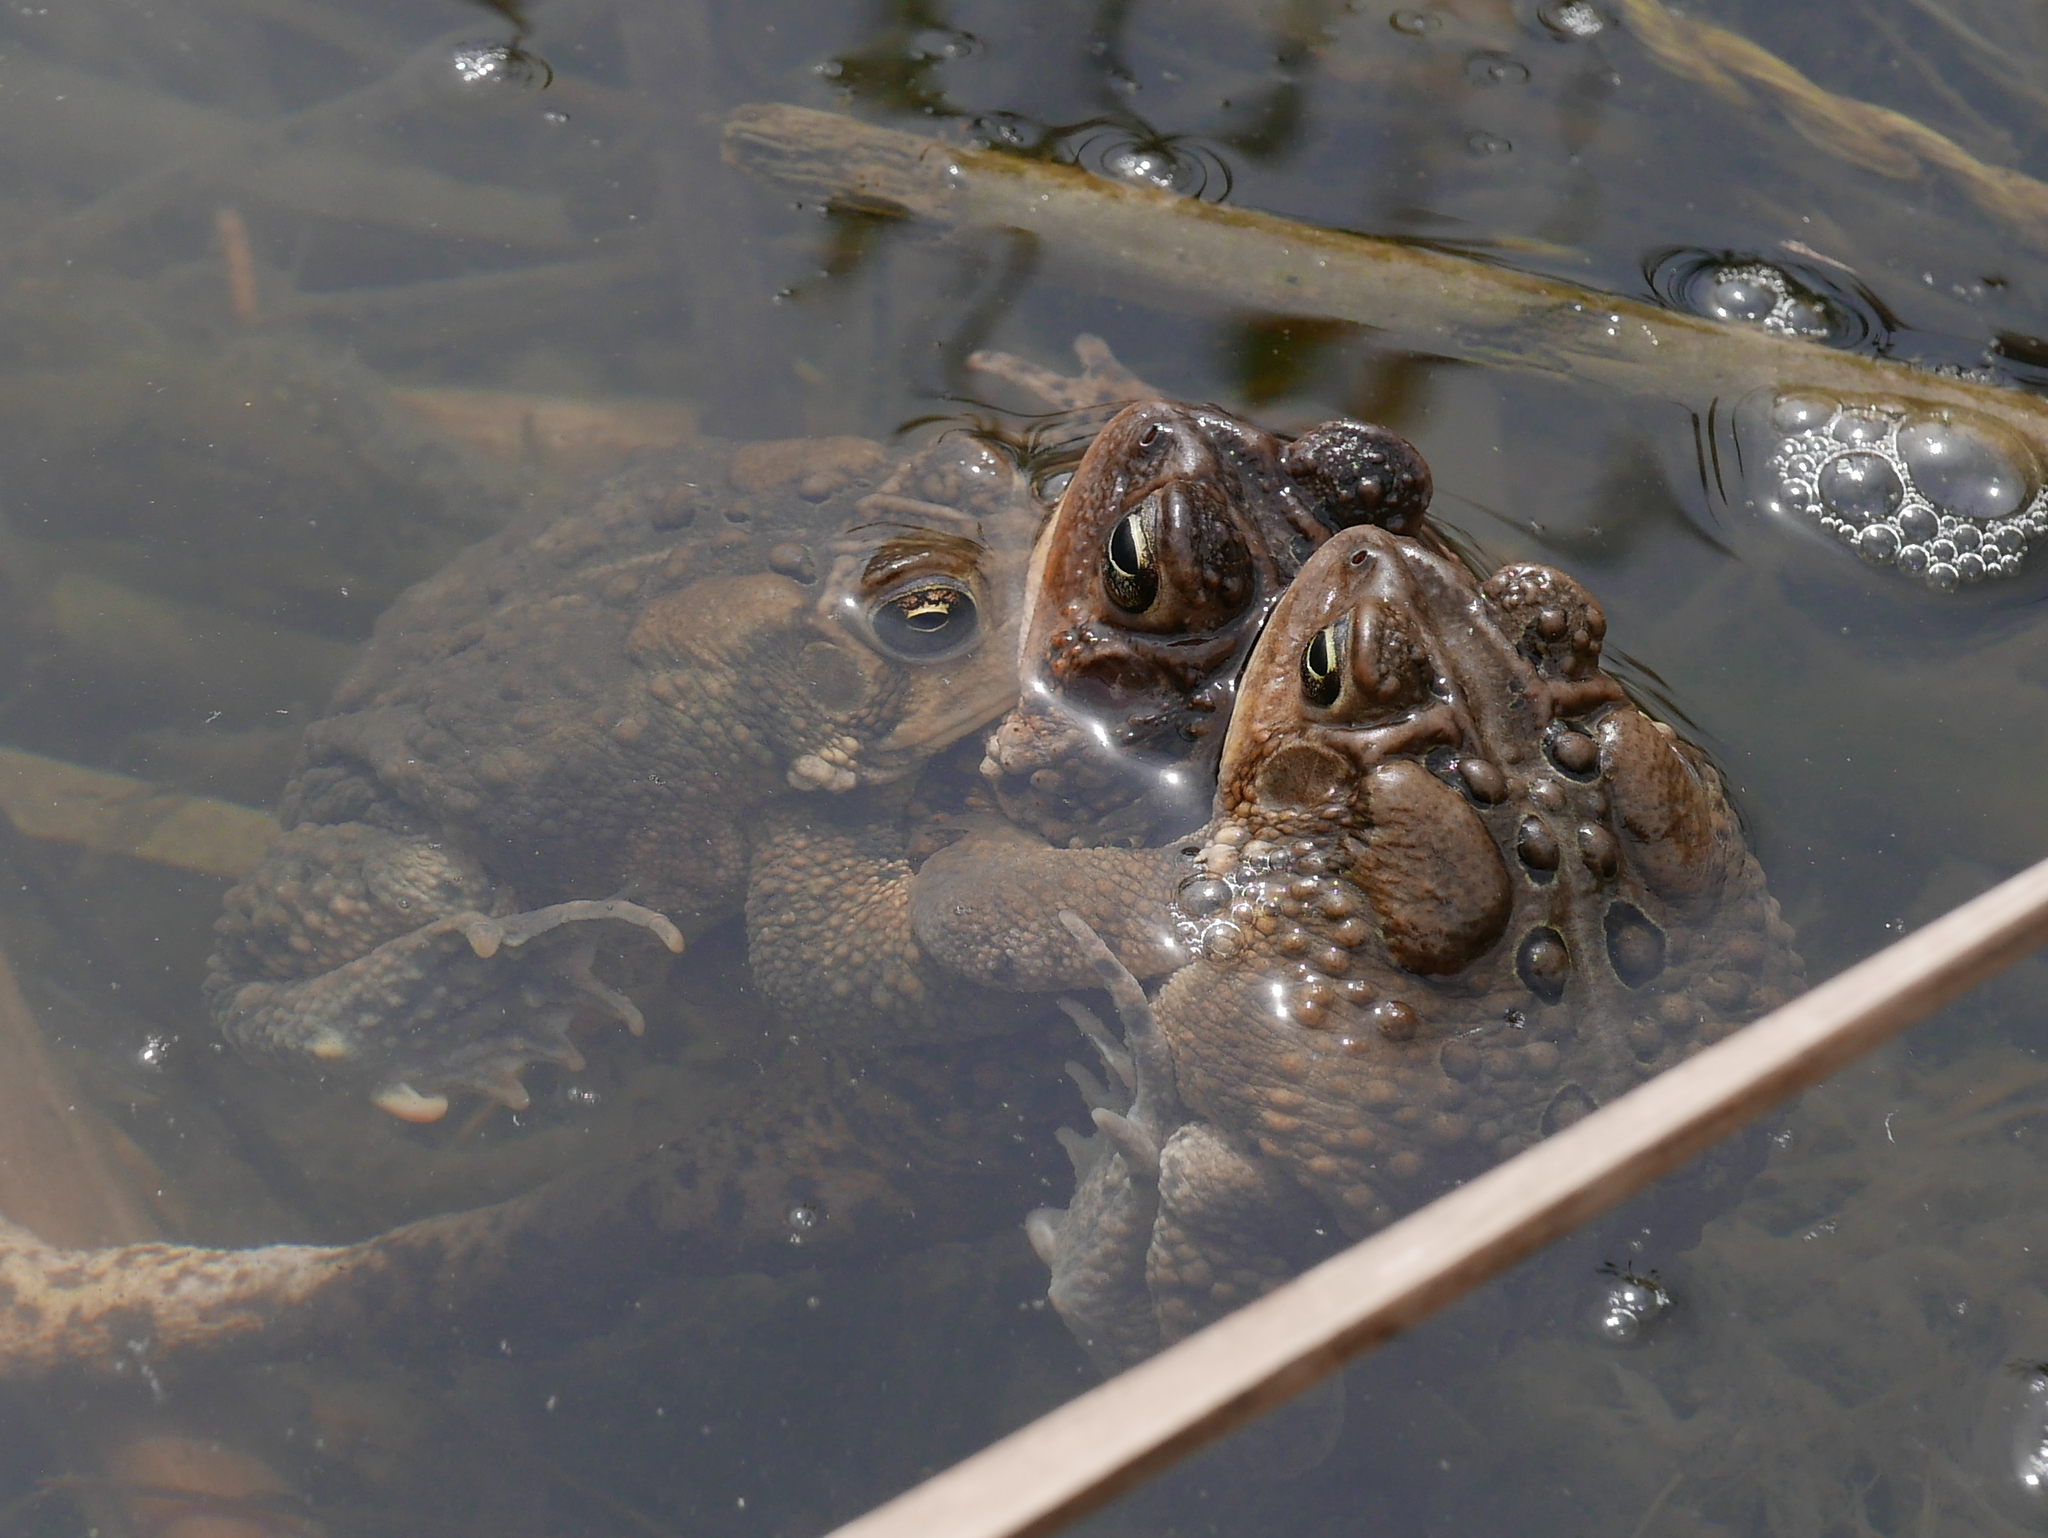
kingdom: Animalia
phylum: Chordata
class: Amphibia
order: Anura
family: Bufonidae
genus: Anaxyrus
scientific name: Anaxyrus americanus
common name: American toad
